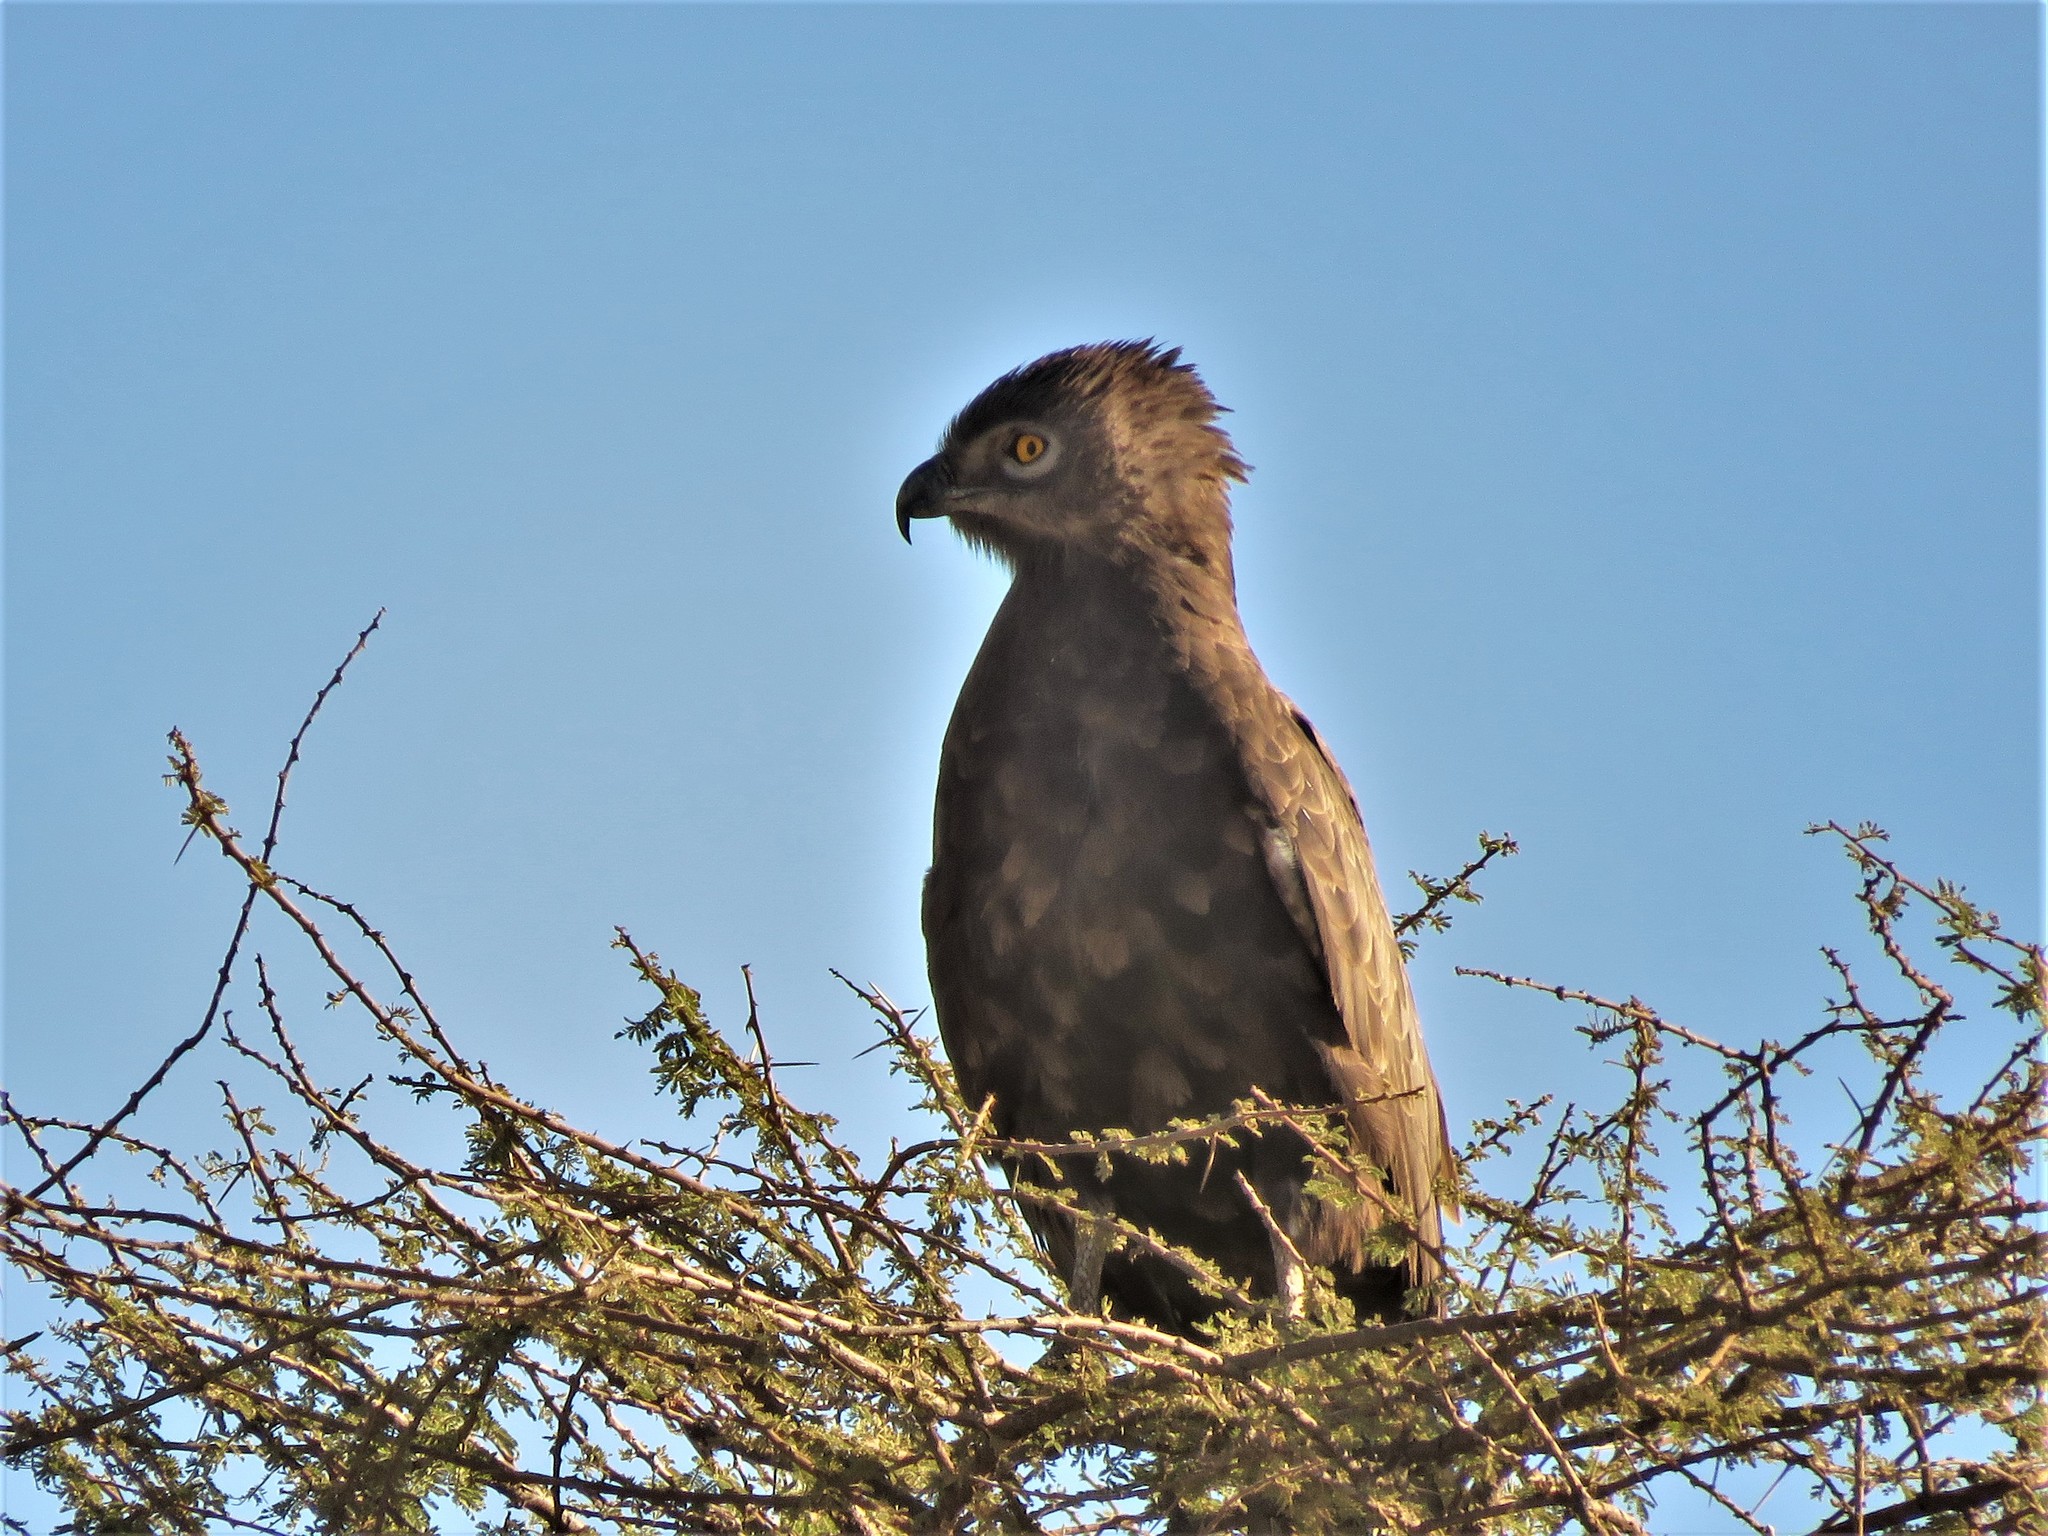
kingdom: Animalia
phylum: Chordata
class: Aves
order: Accipitriformes
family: Accipitridae
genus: Circaetus
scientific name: Circaetus cinereus
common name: Brown snake eagle
